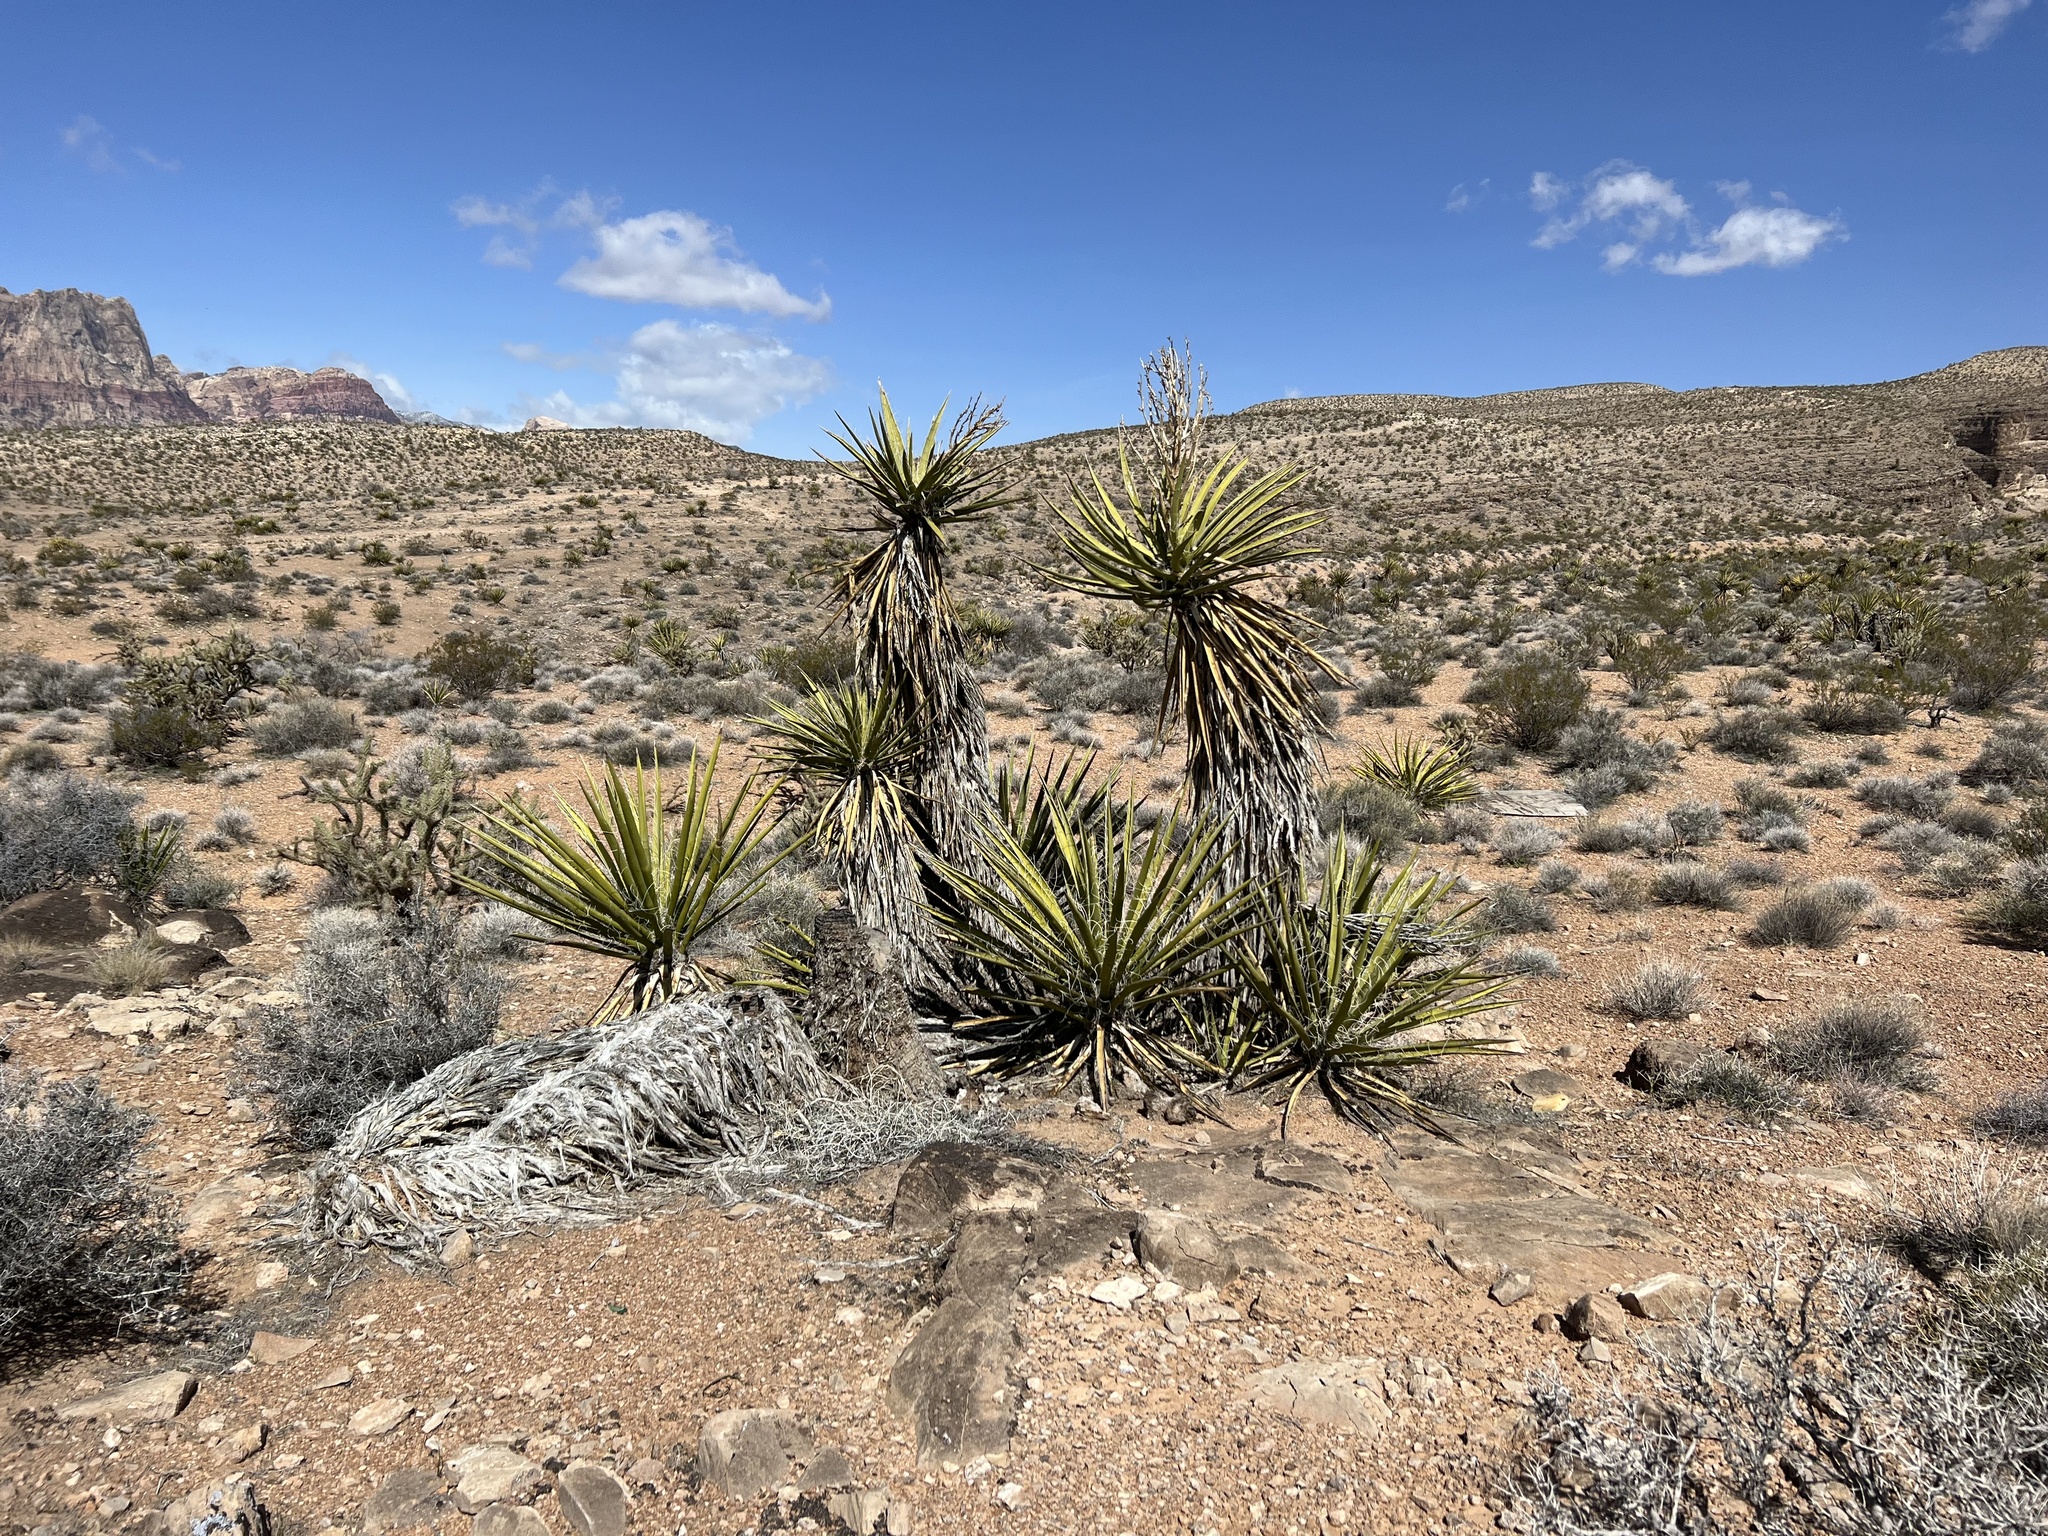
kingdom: Plantae
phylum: Tracheophyta
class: Liliopsida
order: Asparagales
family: Asparagaceae
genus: Yucca
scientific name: Yucca schidigera
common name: Mojave yucca
